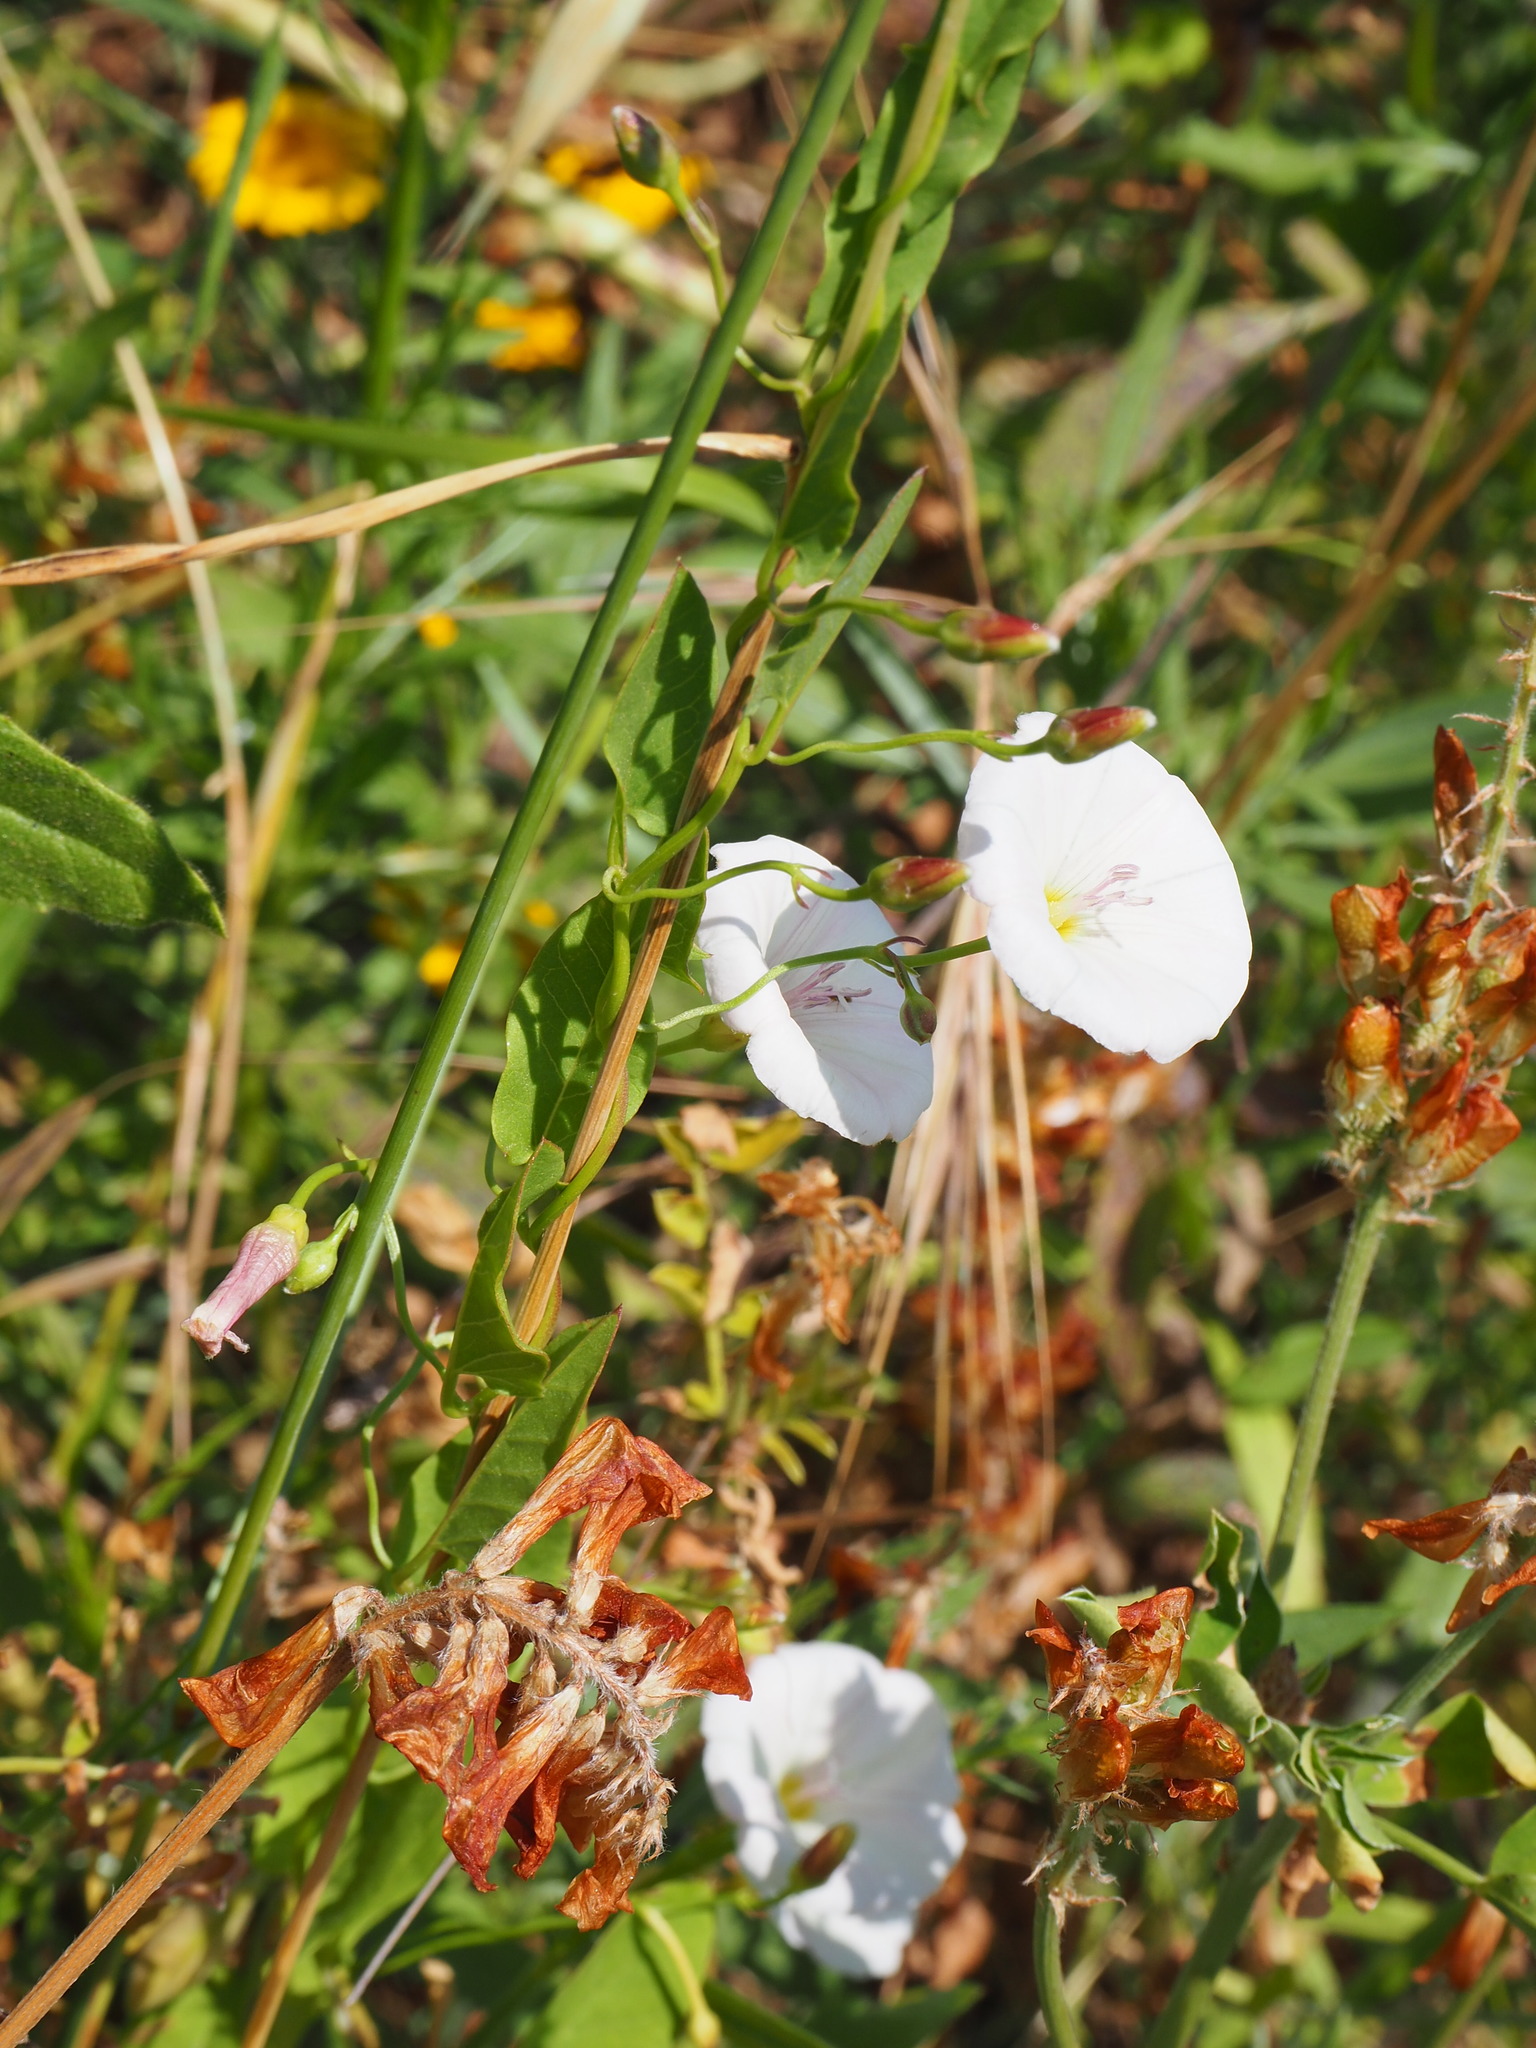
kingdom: Plantae
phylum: Tracheophyta
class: Magnoliopsida
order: Solanales
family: Convolvulaceae
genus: Convolvulus
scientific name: Convolvulus arvensis
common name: Field bindweed
